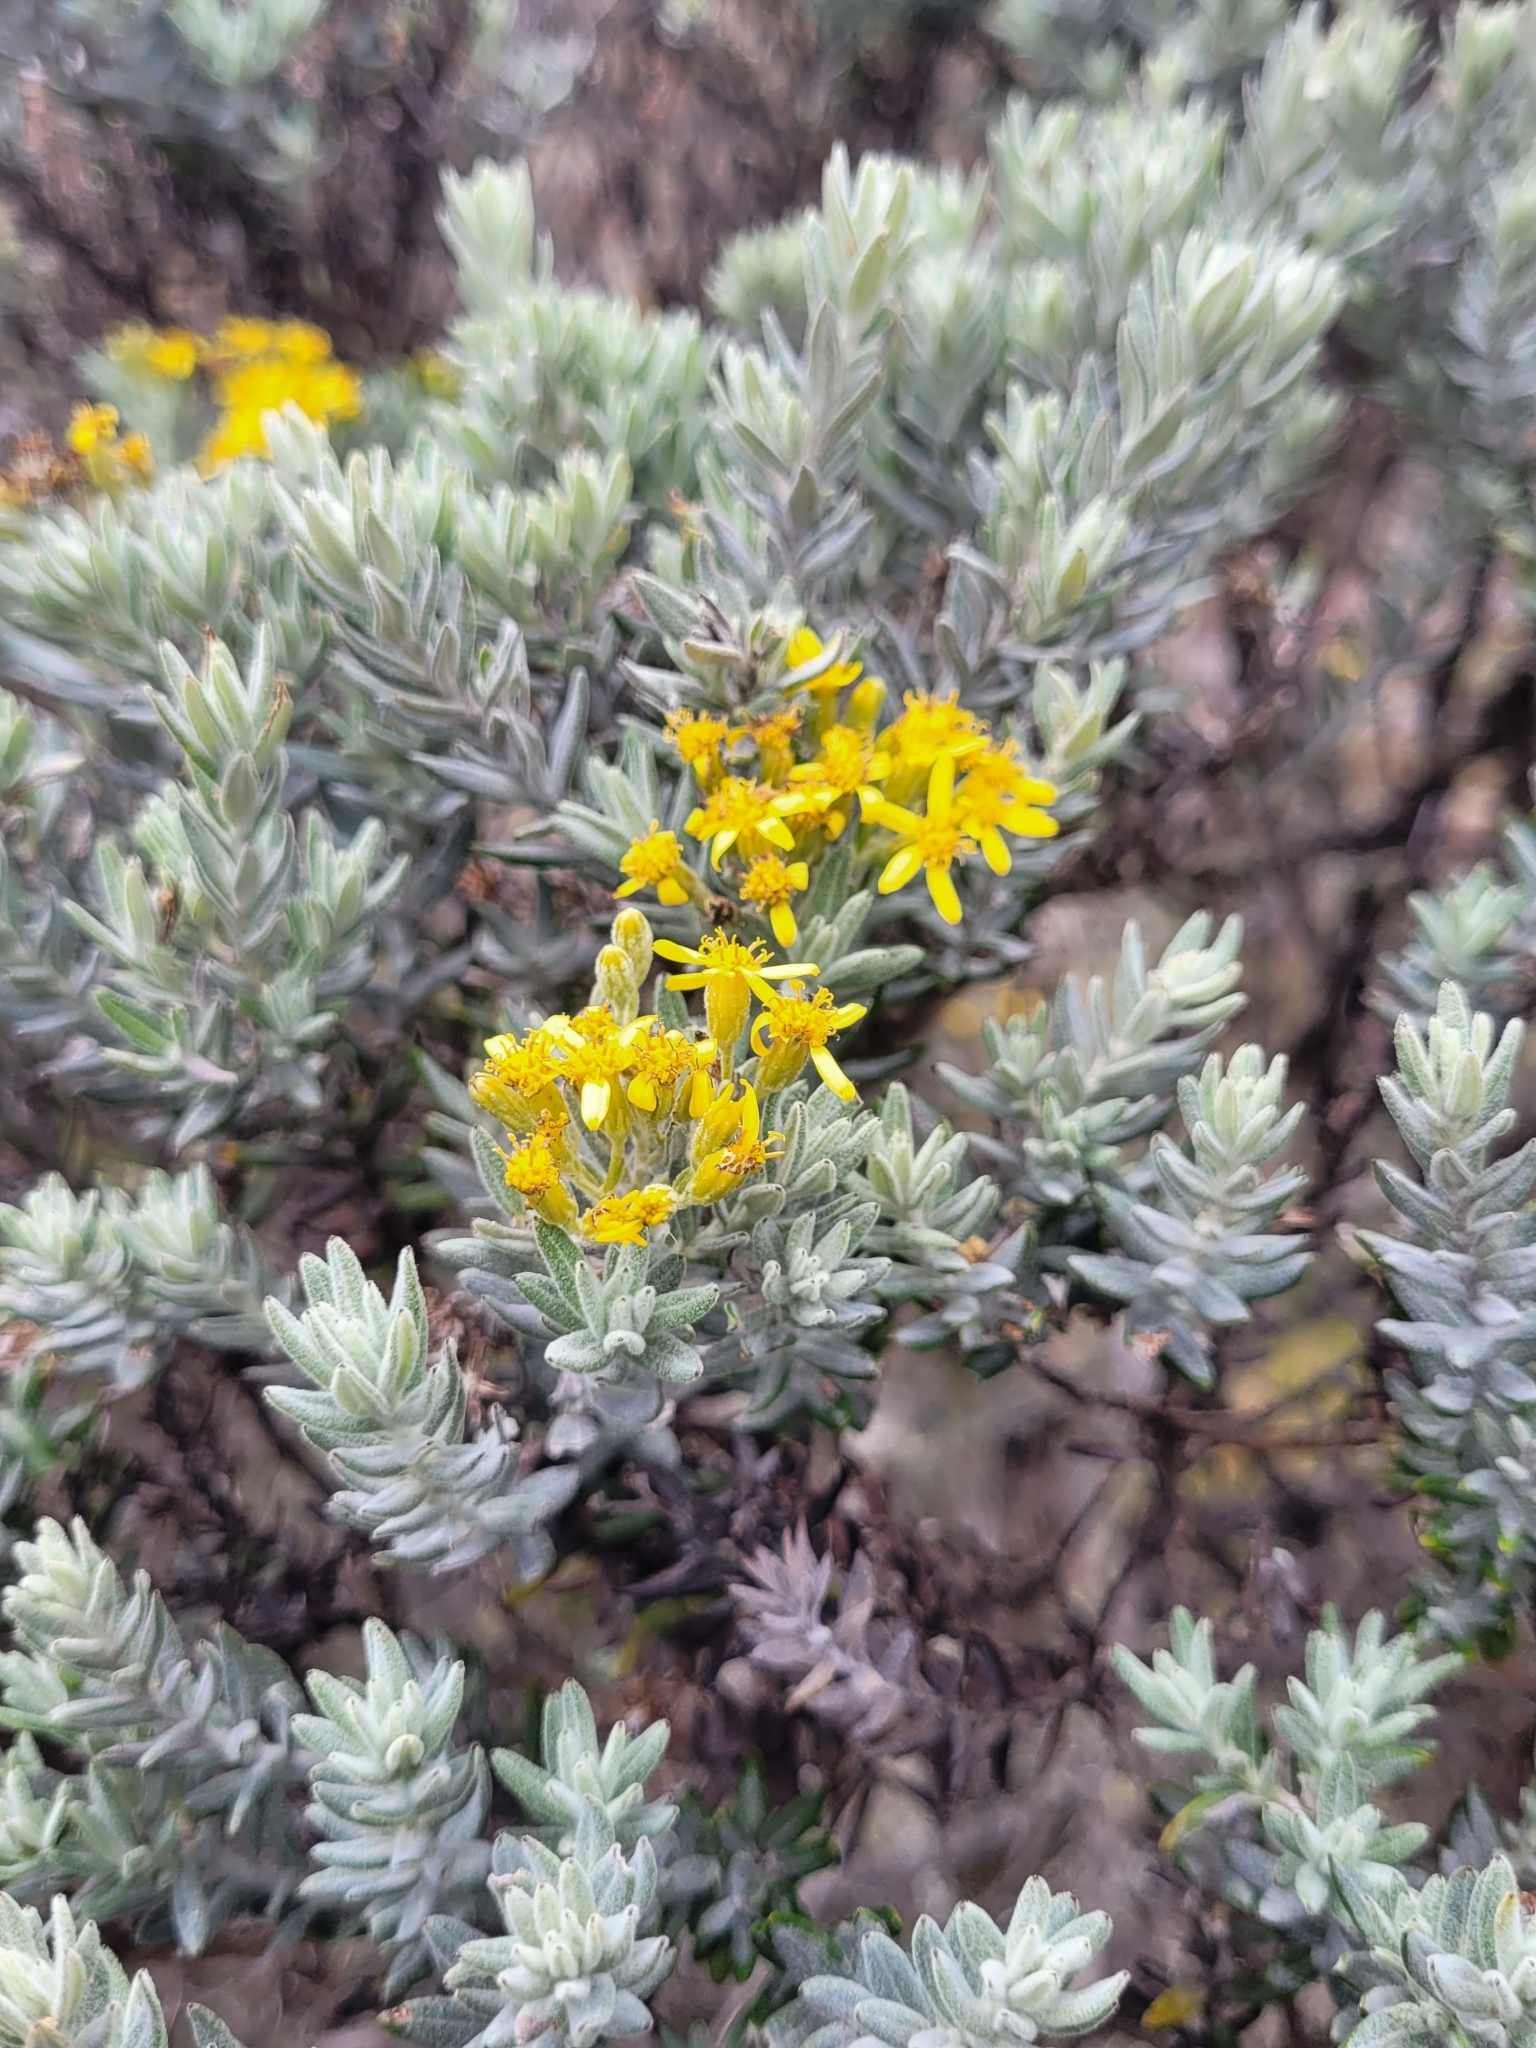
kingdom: Plantae
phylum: Tracheophyta
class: Magnoliopsida
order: Asterales
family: Asteraceae
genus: Hubertia
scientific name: Hubertia tomentosa
